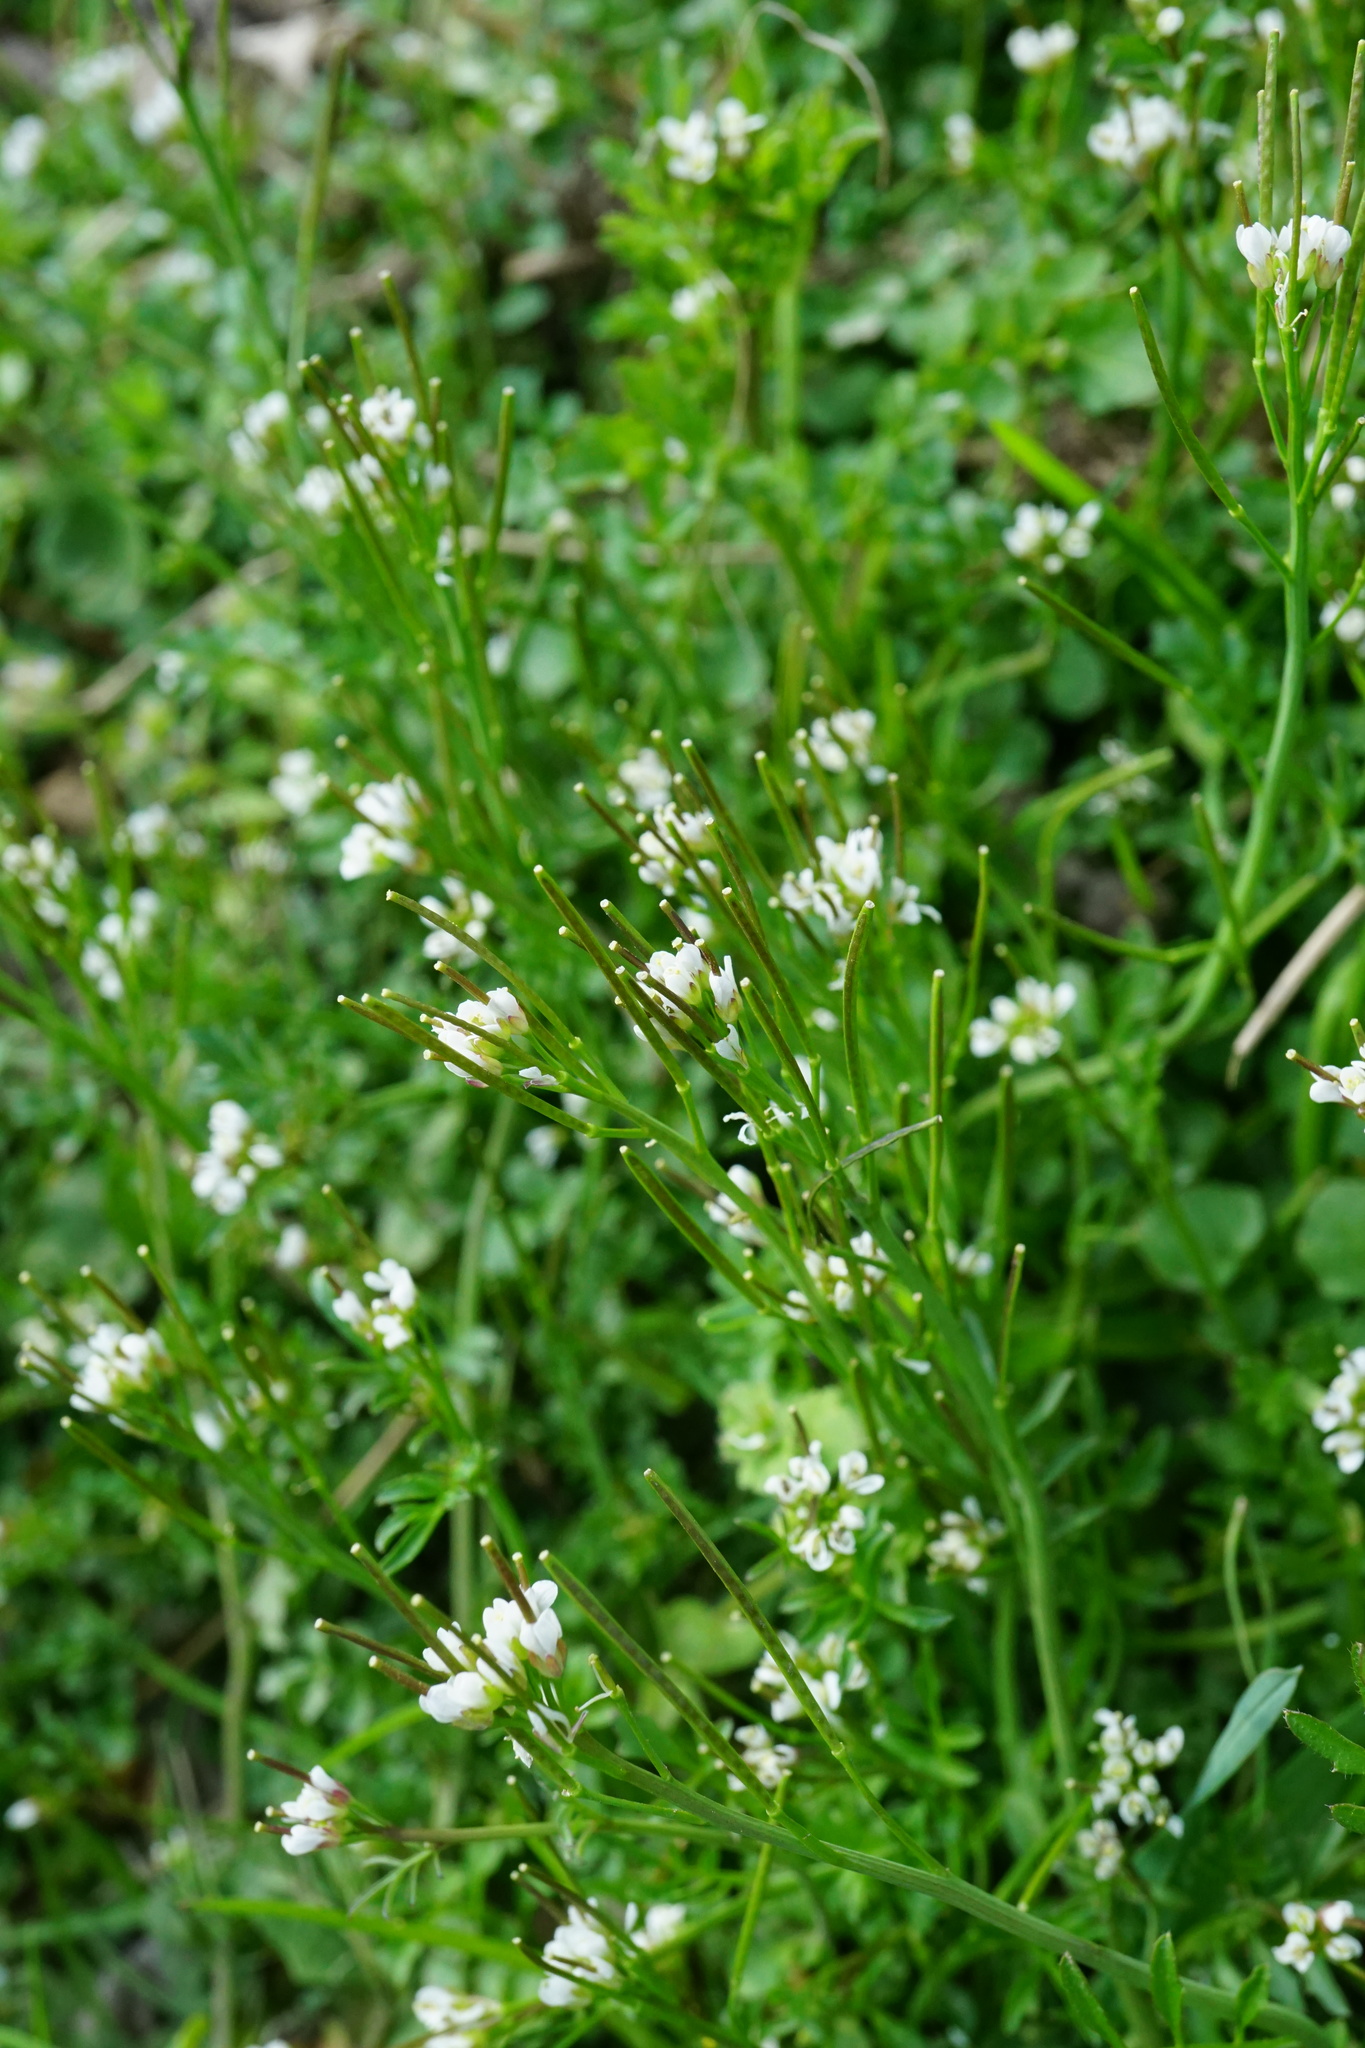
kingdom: Plantae
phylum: Tracheophyta
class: Magnoliopsida
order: Brassicales
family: Brassicaceae
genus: Cardamine
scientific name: Cardamine hirsuta
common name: Hairy bittercress
